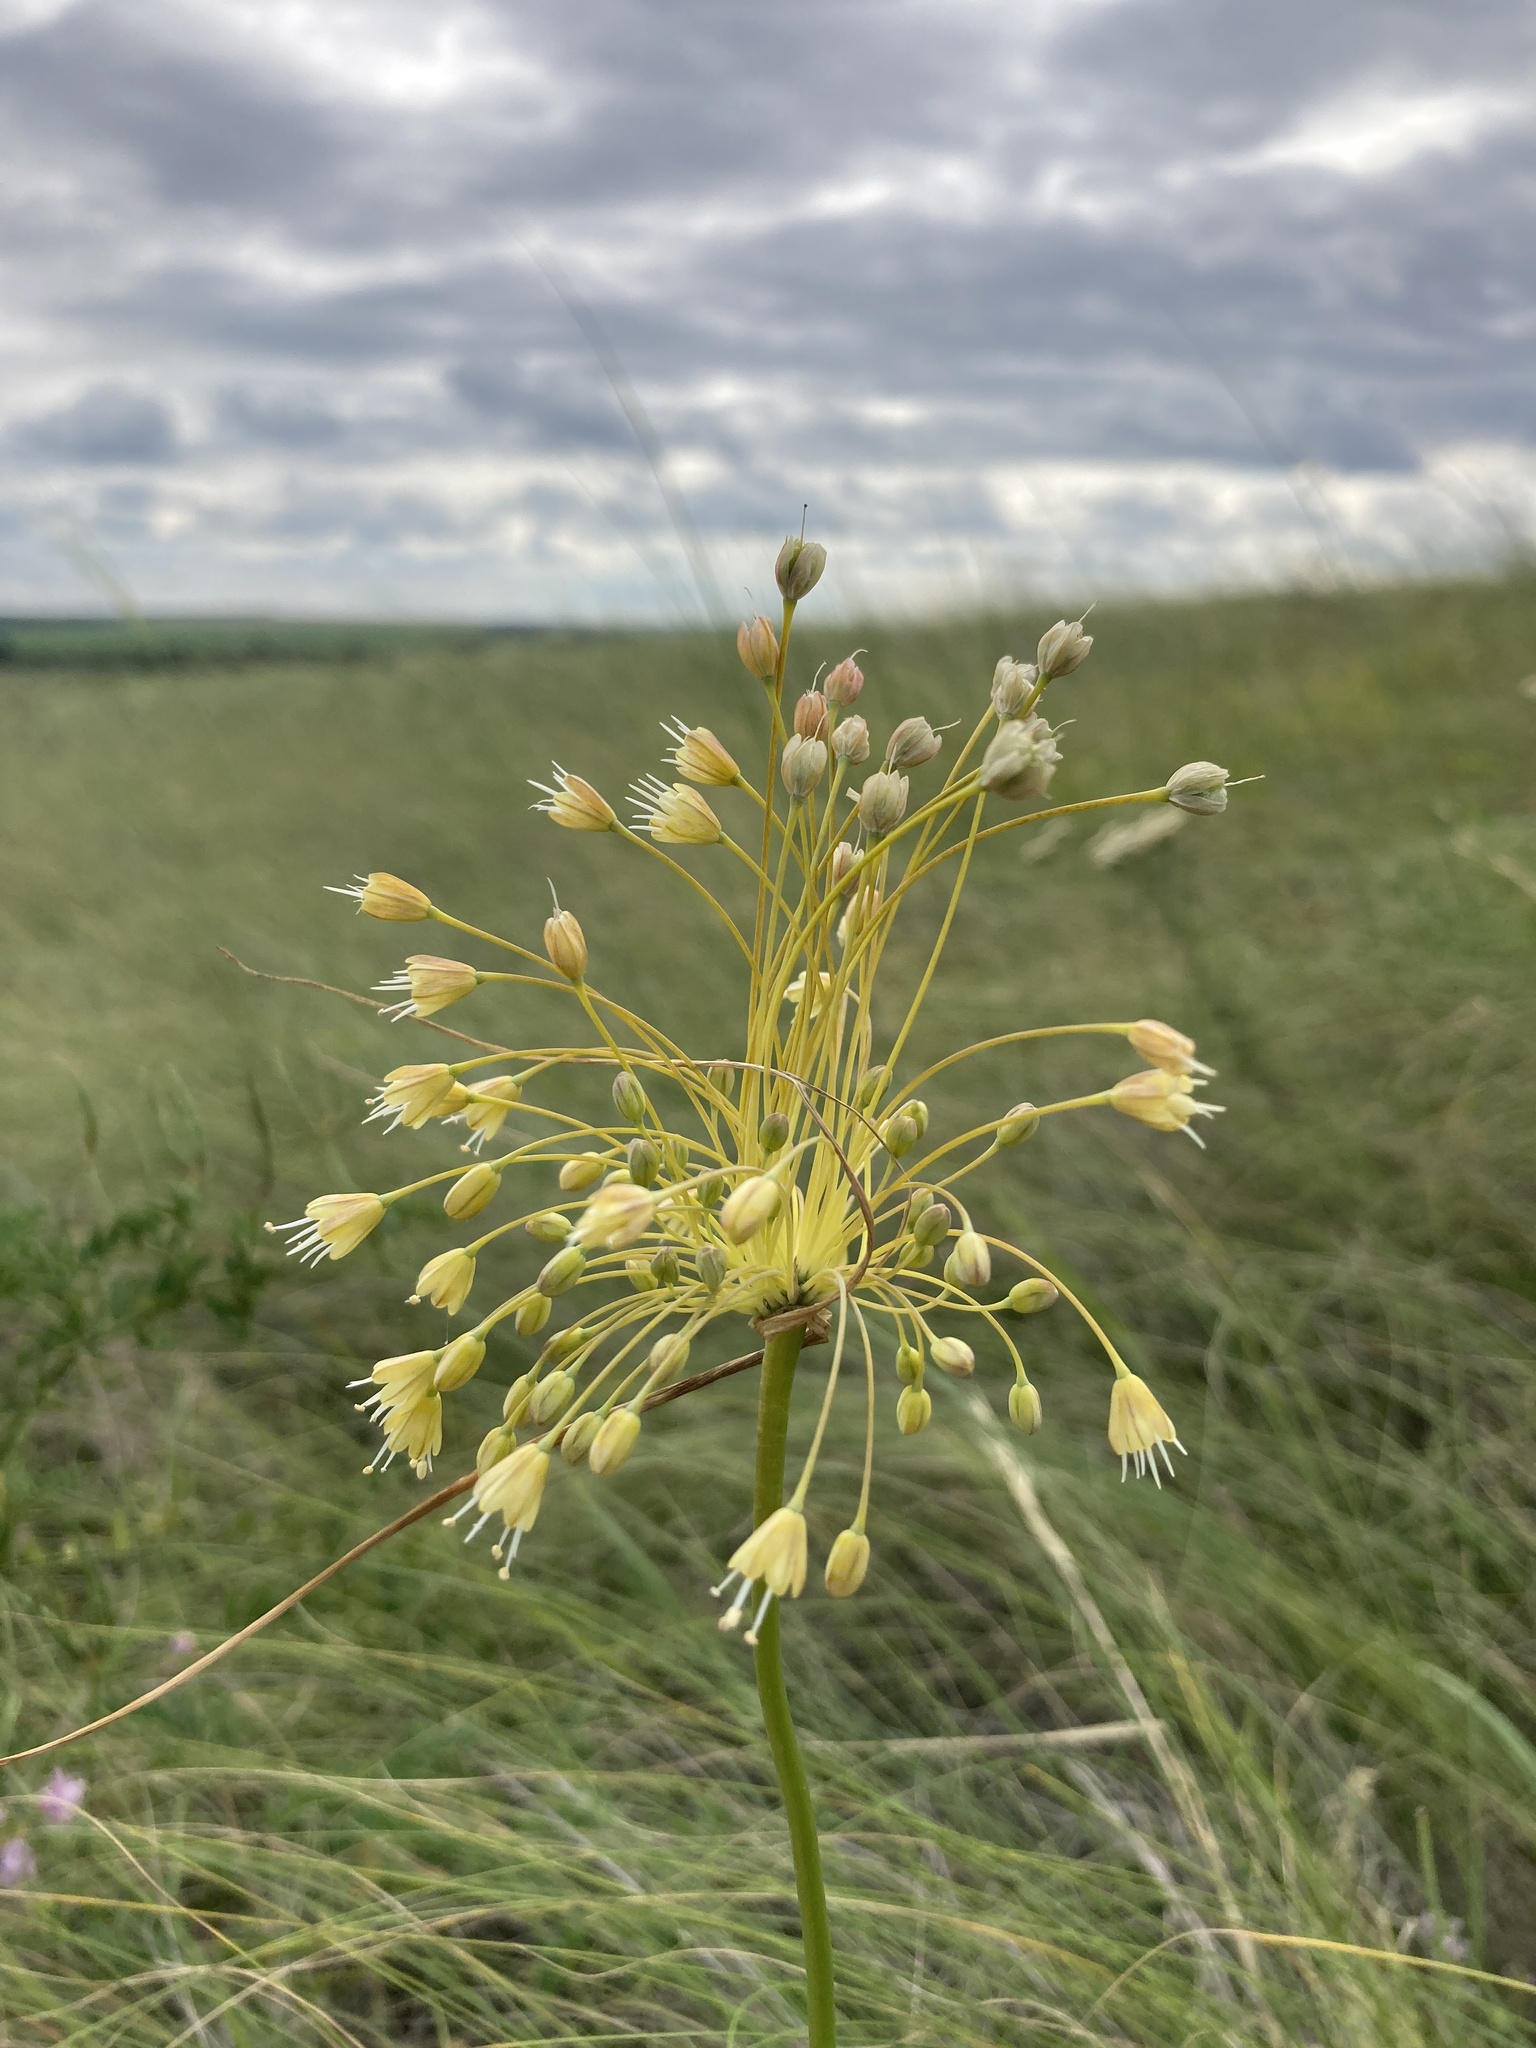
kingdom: Plantae
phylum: Tracheophyta
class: Liliopsida
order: Asparagales
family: Amaryllidaceae
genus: Allium
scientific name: Allium flavum
